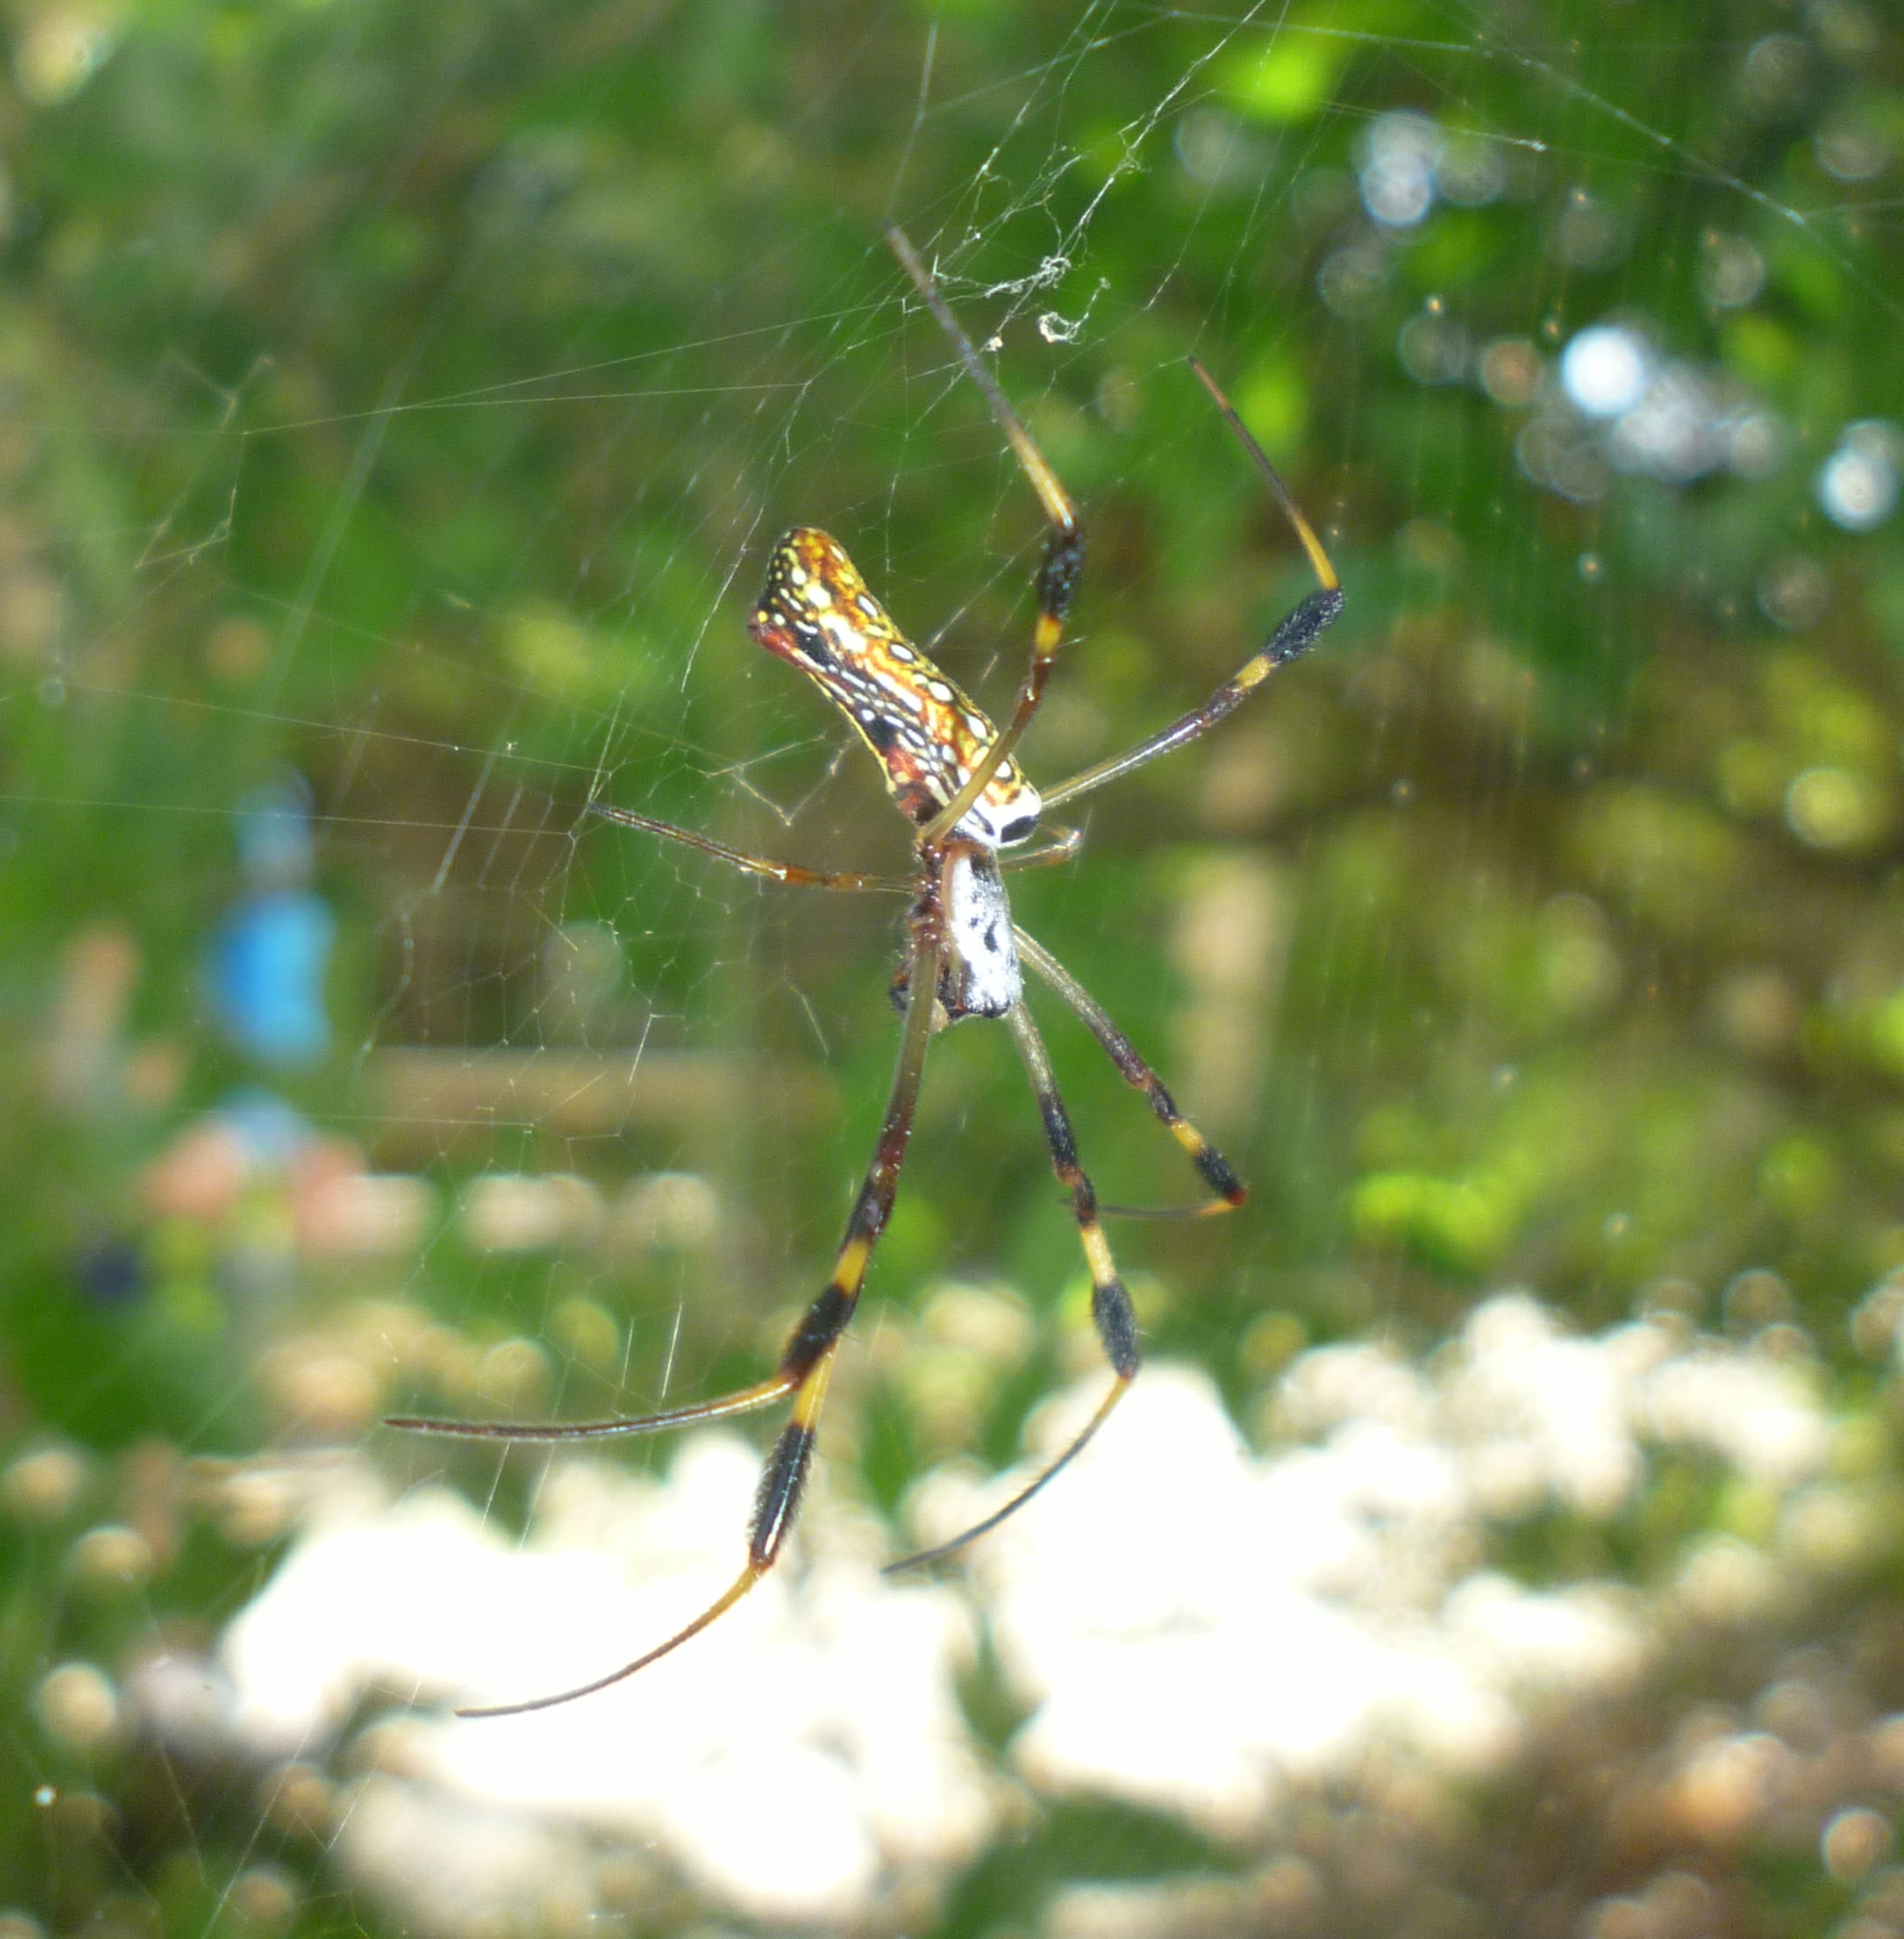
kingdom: Animalia
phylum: Arthropoda
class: Arachnida
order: Araneae
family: Araneidae
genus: Trichonephila
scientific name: Trichonephila clavipes
